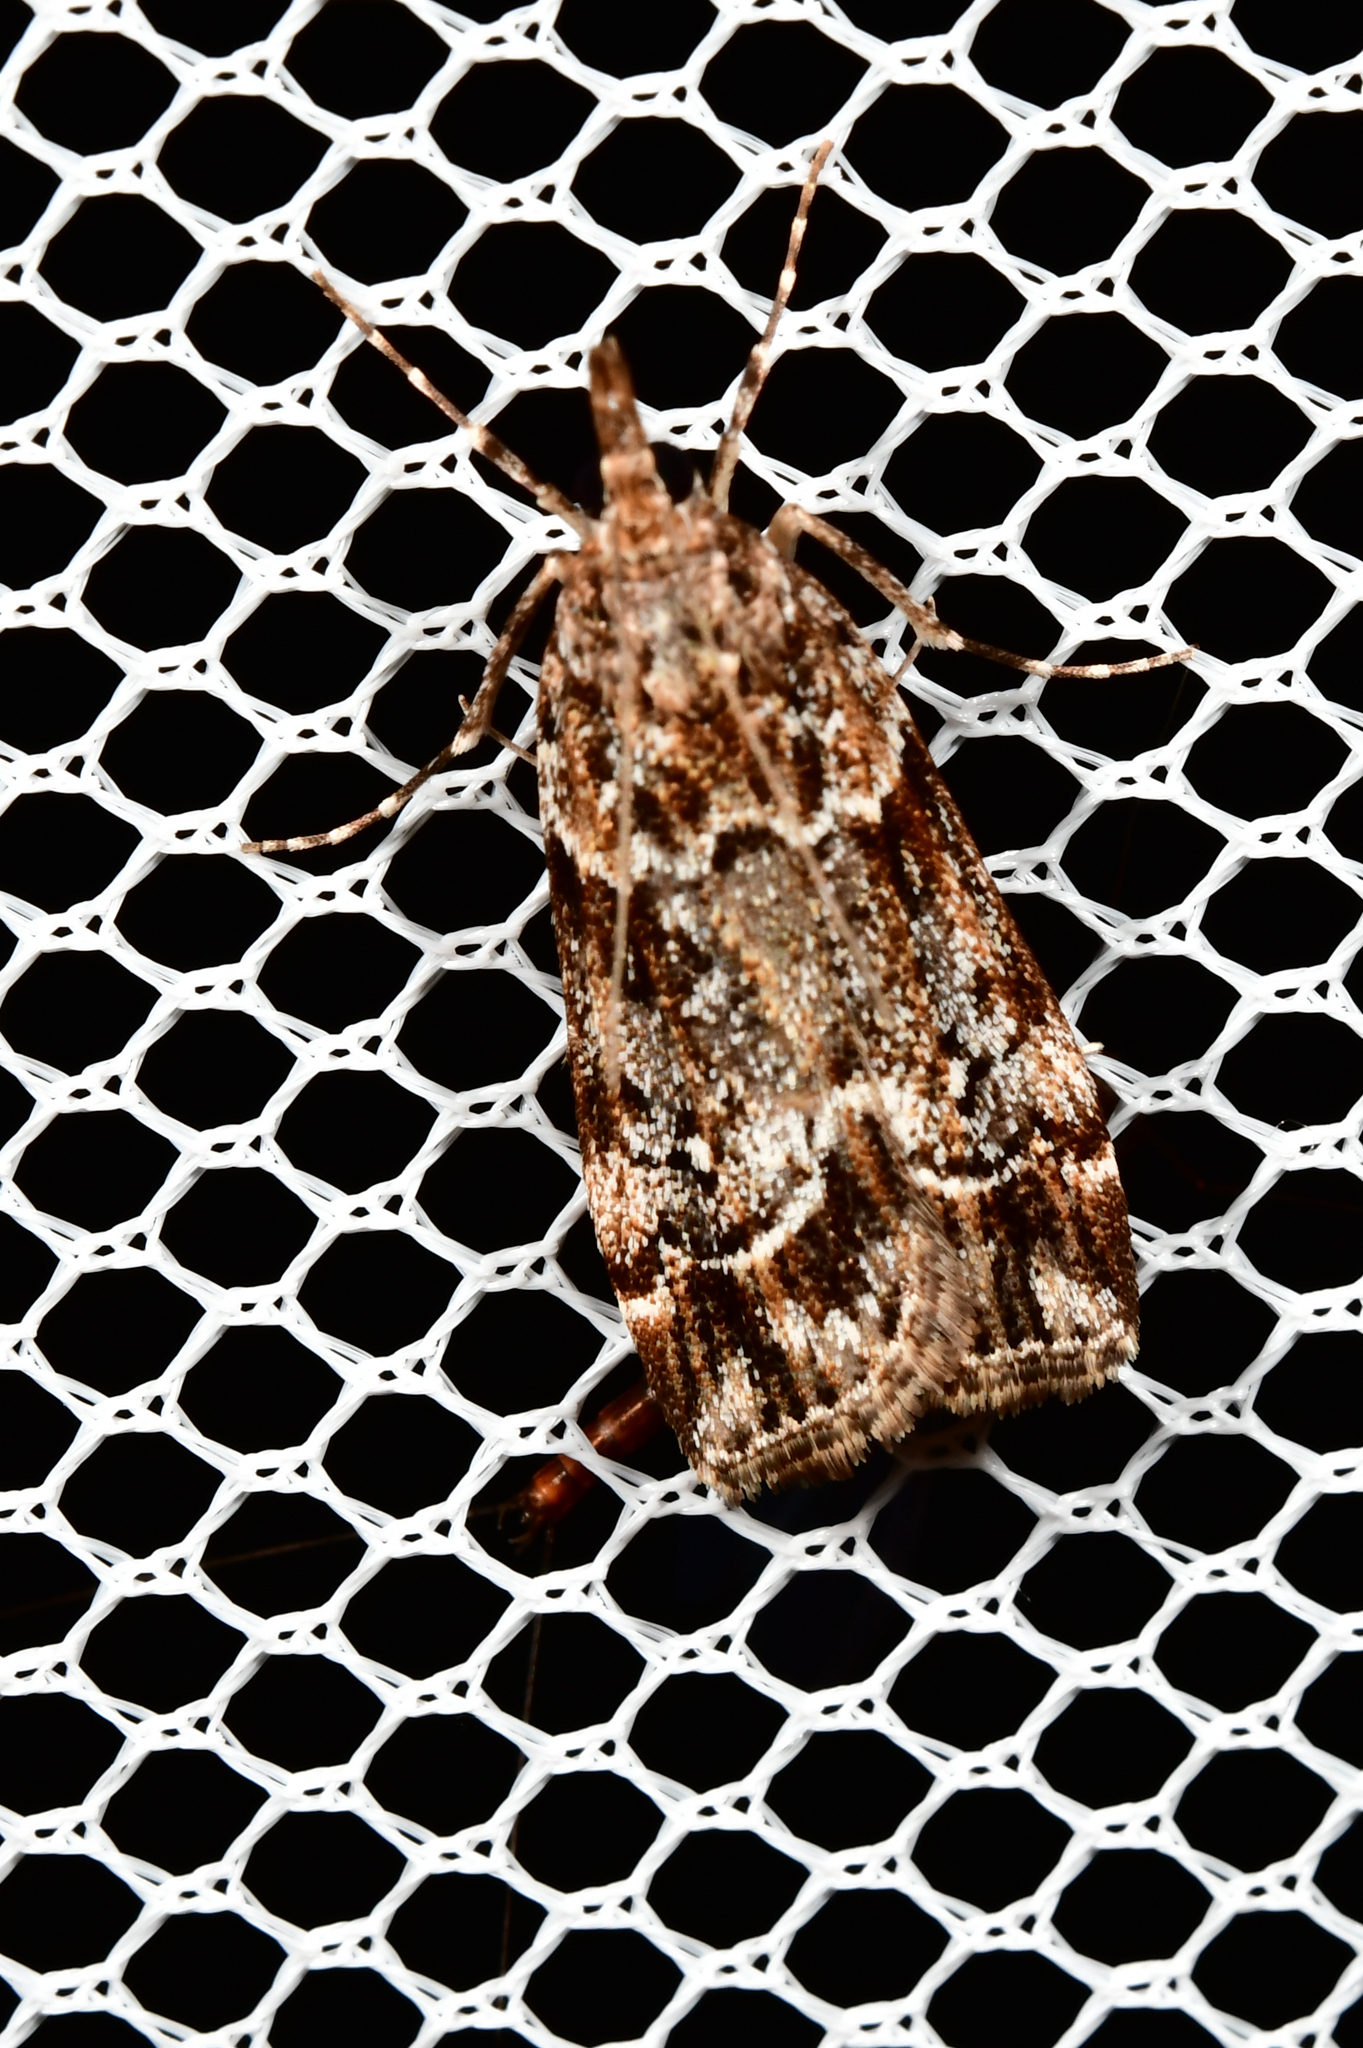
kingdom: Animalia
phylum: Arthropoda
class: Insecta
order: Lepidoptera
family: Crambidae
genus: Eudonia
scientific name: Eudonia legnota
